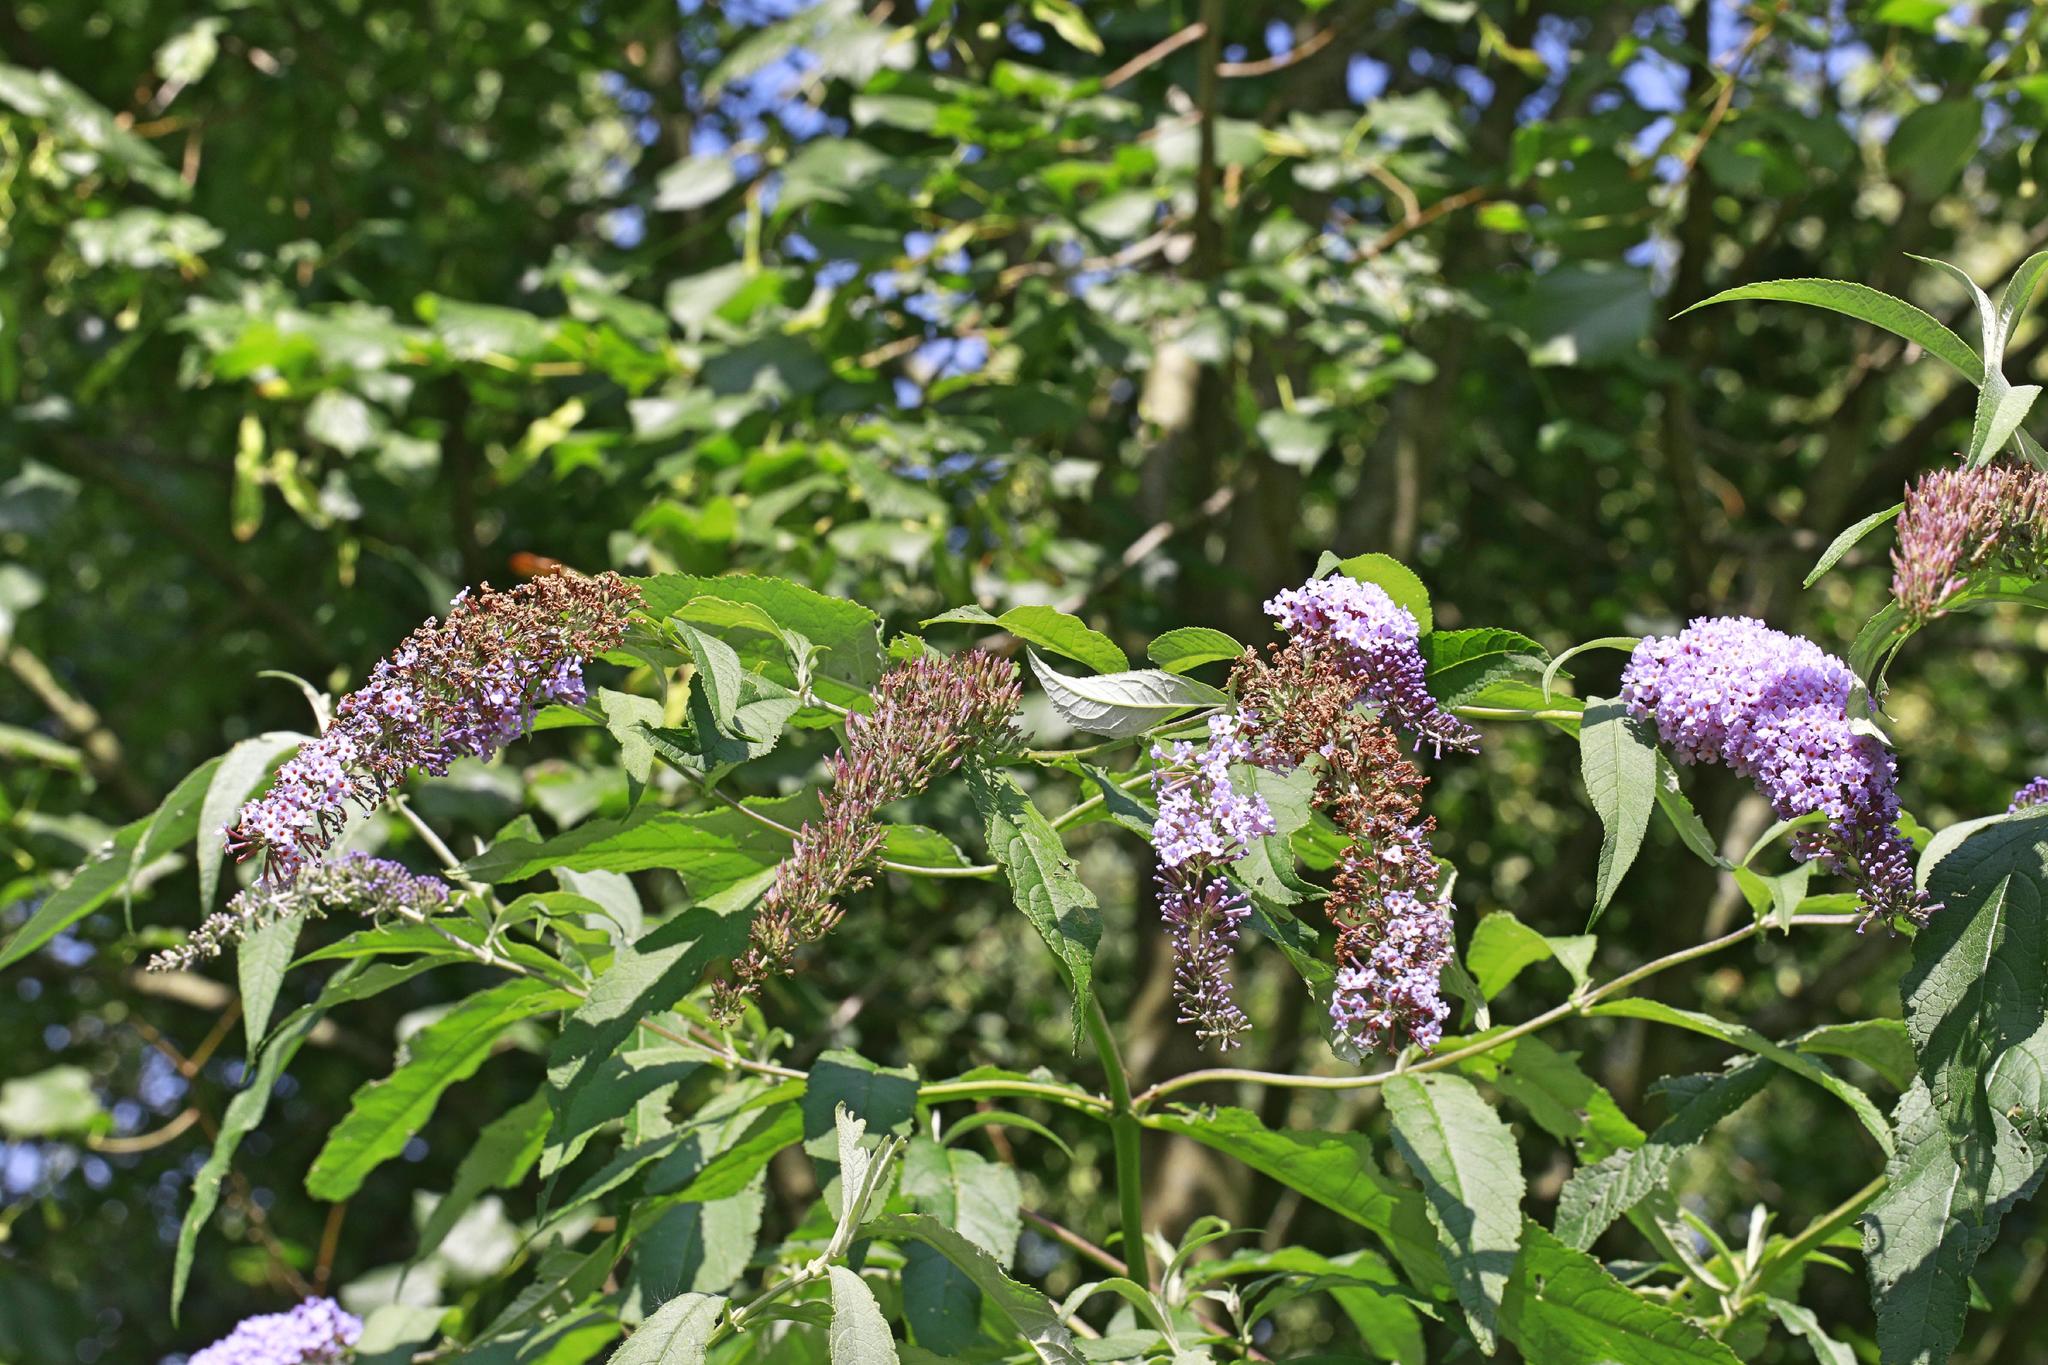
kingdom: Plantae
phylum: Tracheophyta
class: Magnoliopsida
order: Lamiales
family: Scrophulariaceae
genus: Buddleja
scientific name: Buddleja davidii
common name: Butterfly-bush
